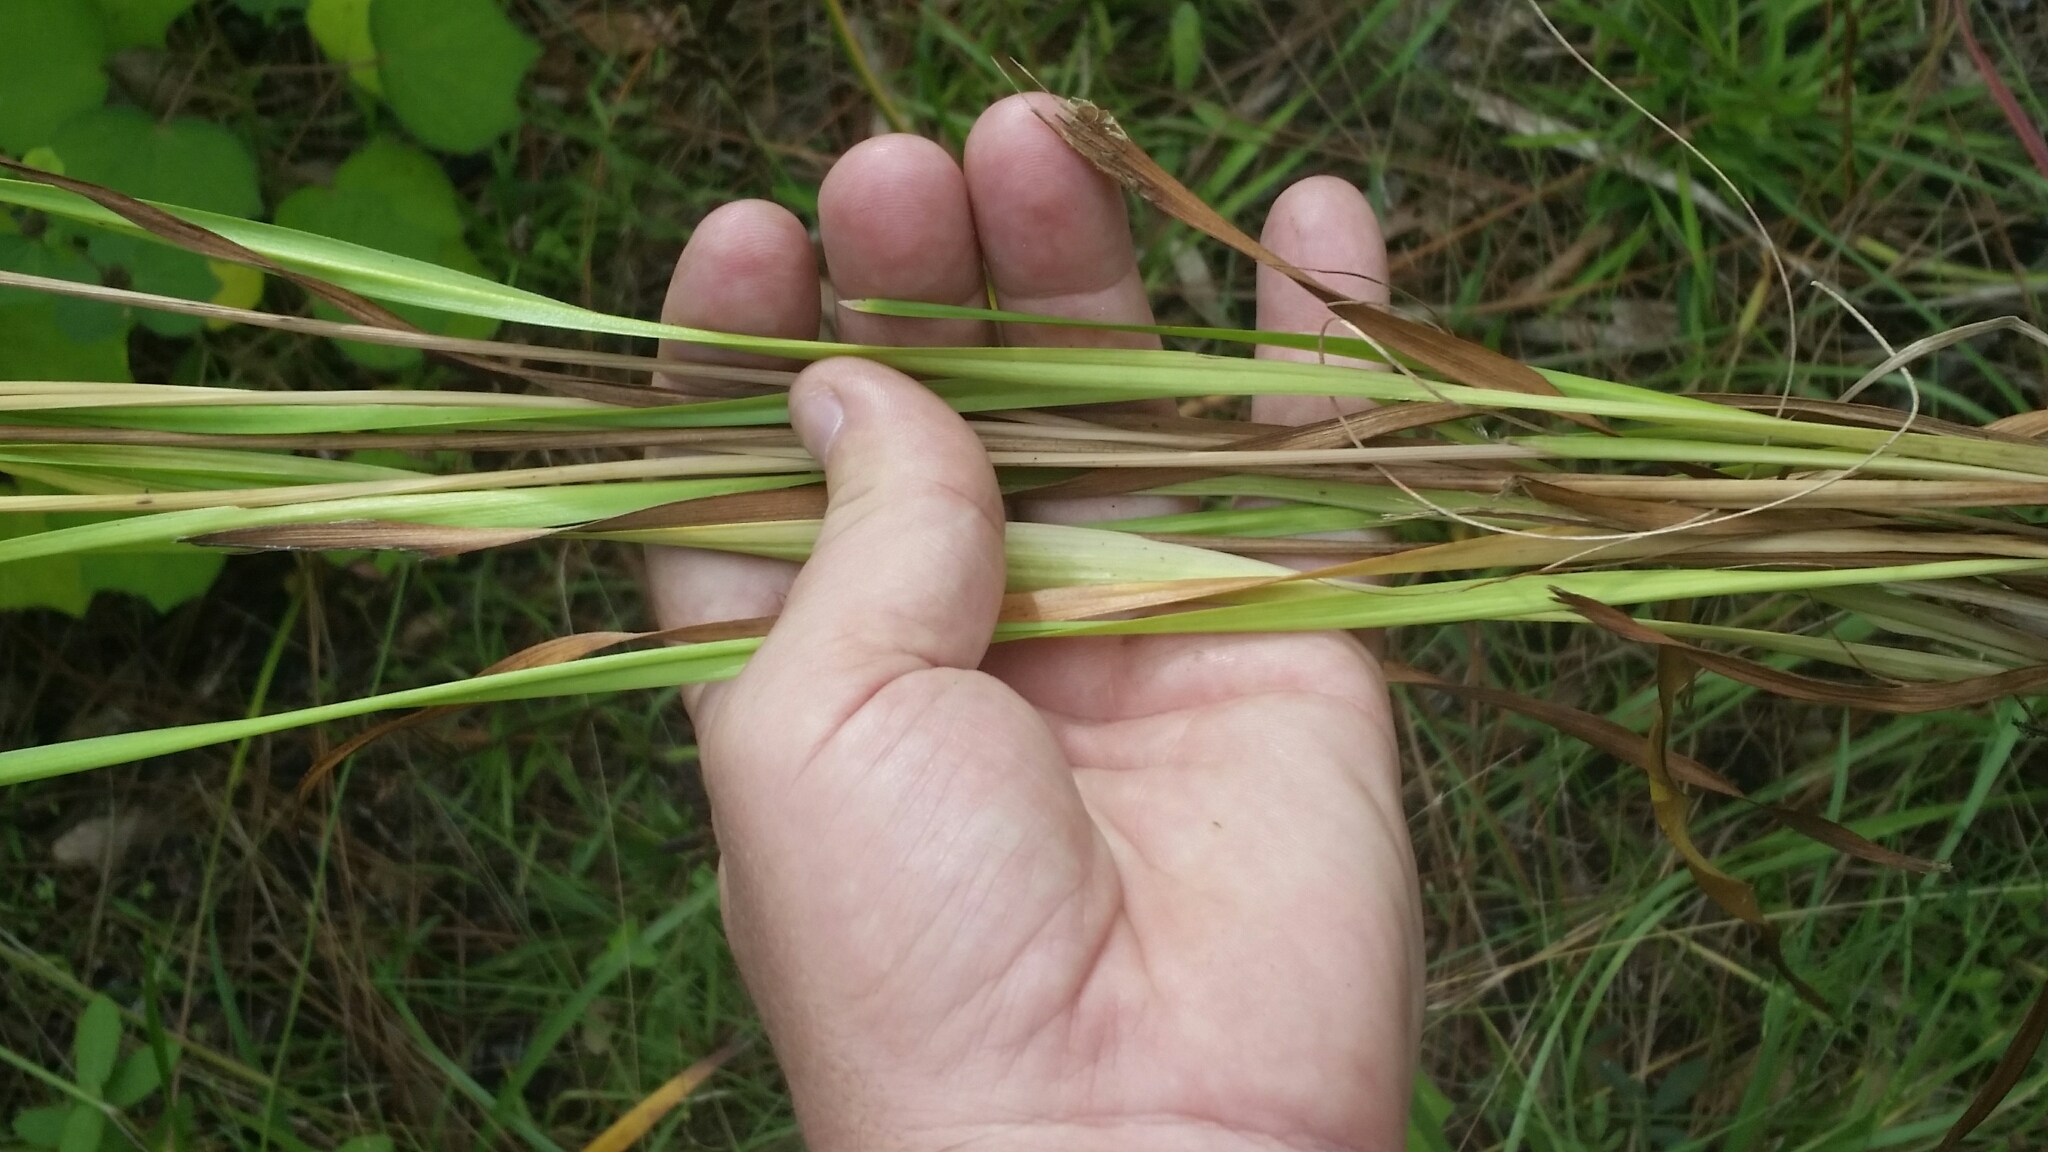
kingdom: Plantae
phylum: Tracheophyta
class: Liliopsida
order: Poales
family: Xyridaceae
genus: Xyris
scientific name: Xyris platylepis
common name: Tall yelloweyed grass
